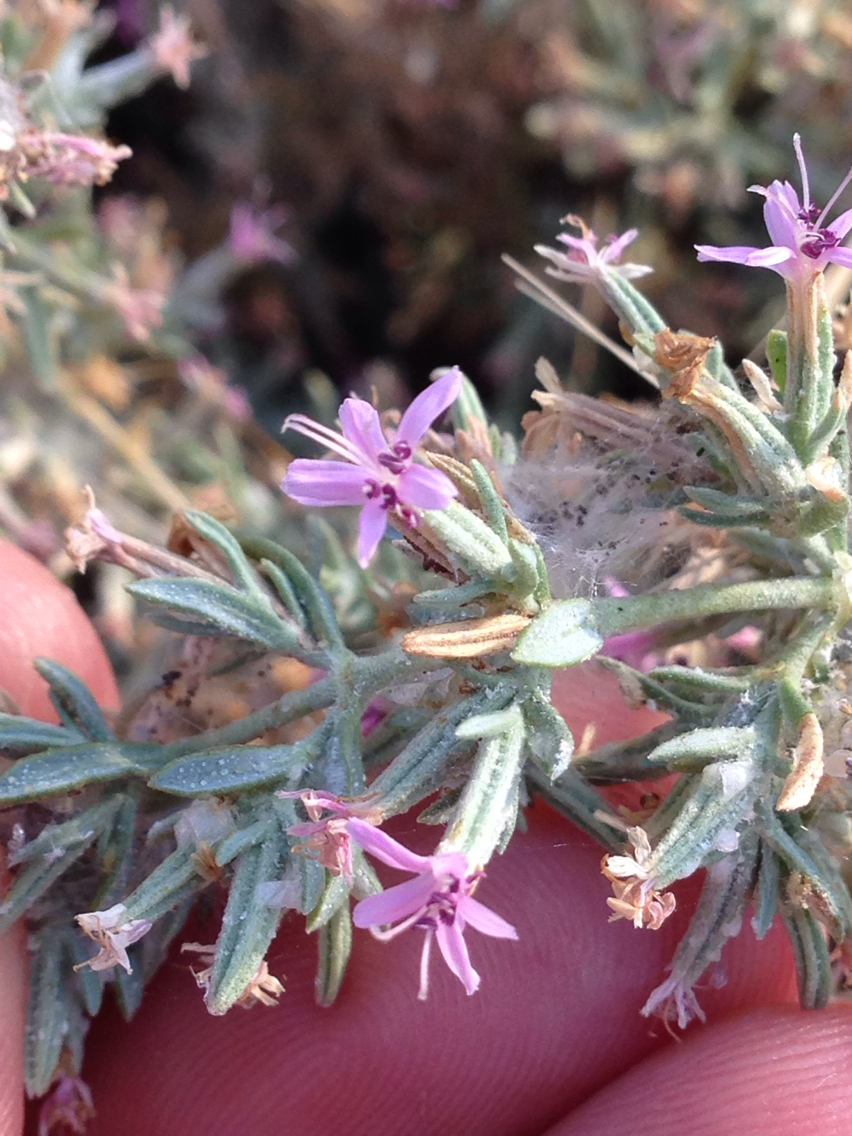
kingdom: Plantae
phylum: Tracheophyta
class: Magnoliopsida
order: Caryophyllales
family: Frankeniaceae
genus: Frankenia
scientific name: Frankenia salina
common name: Alkali seaheath
